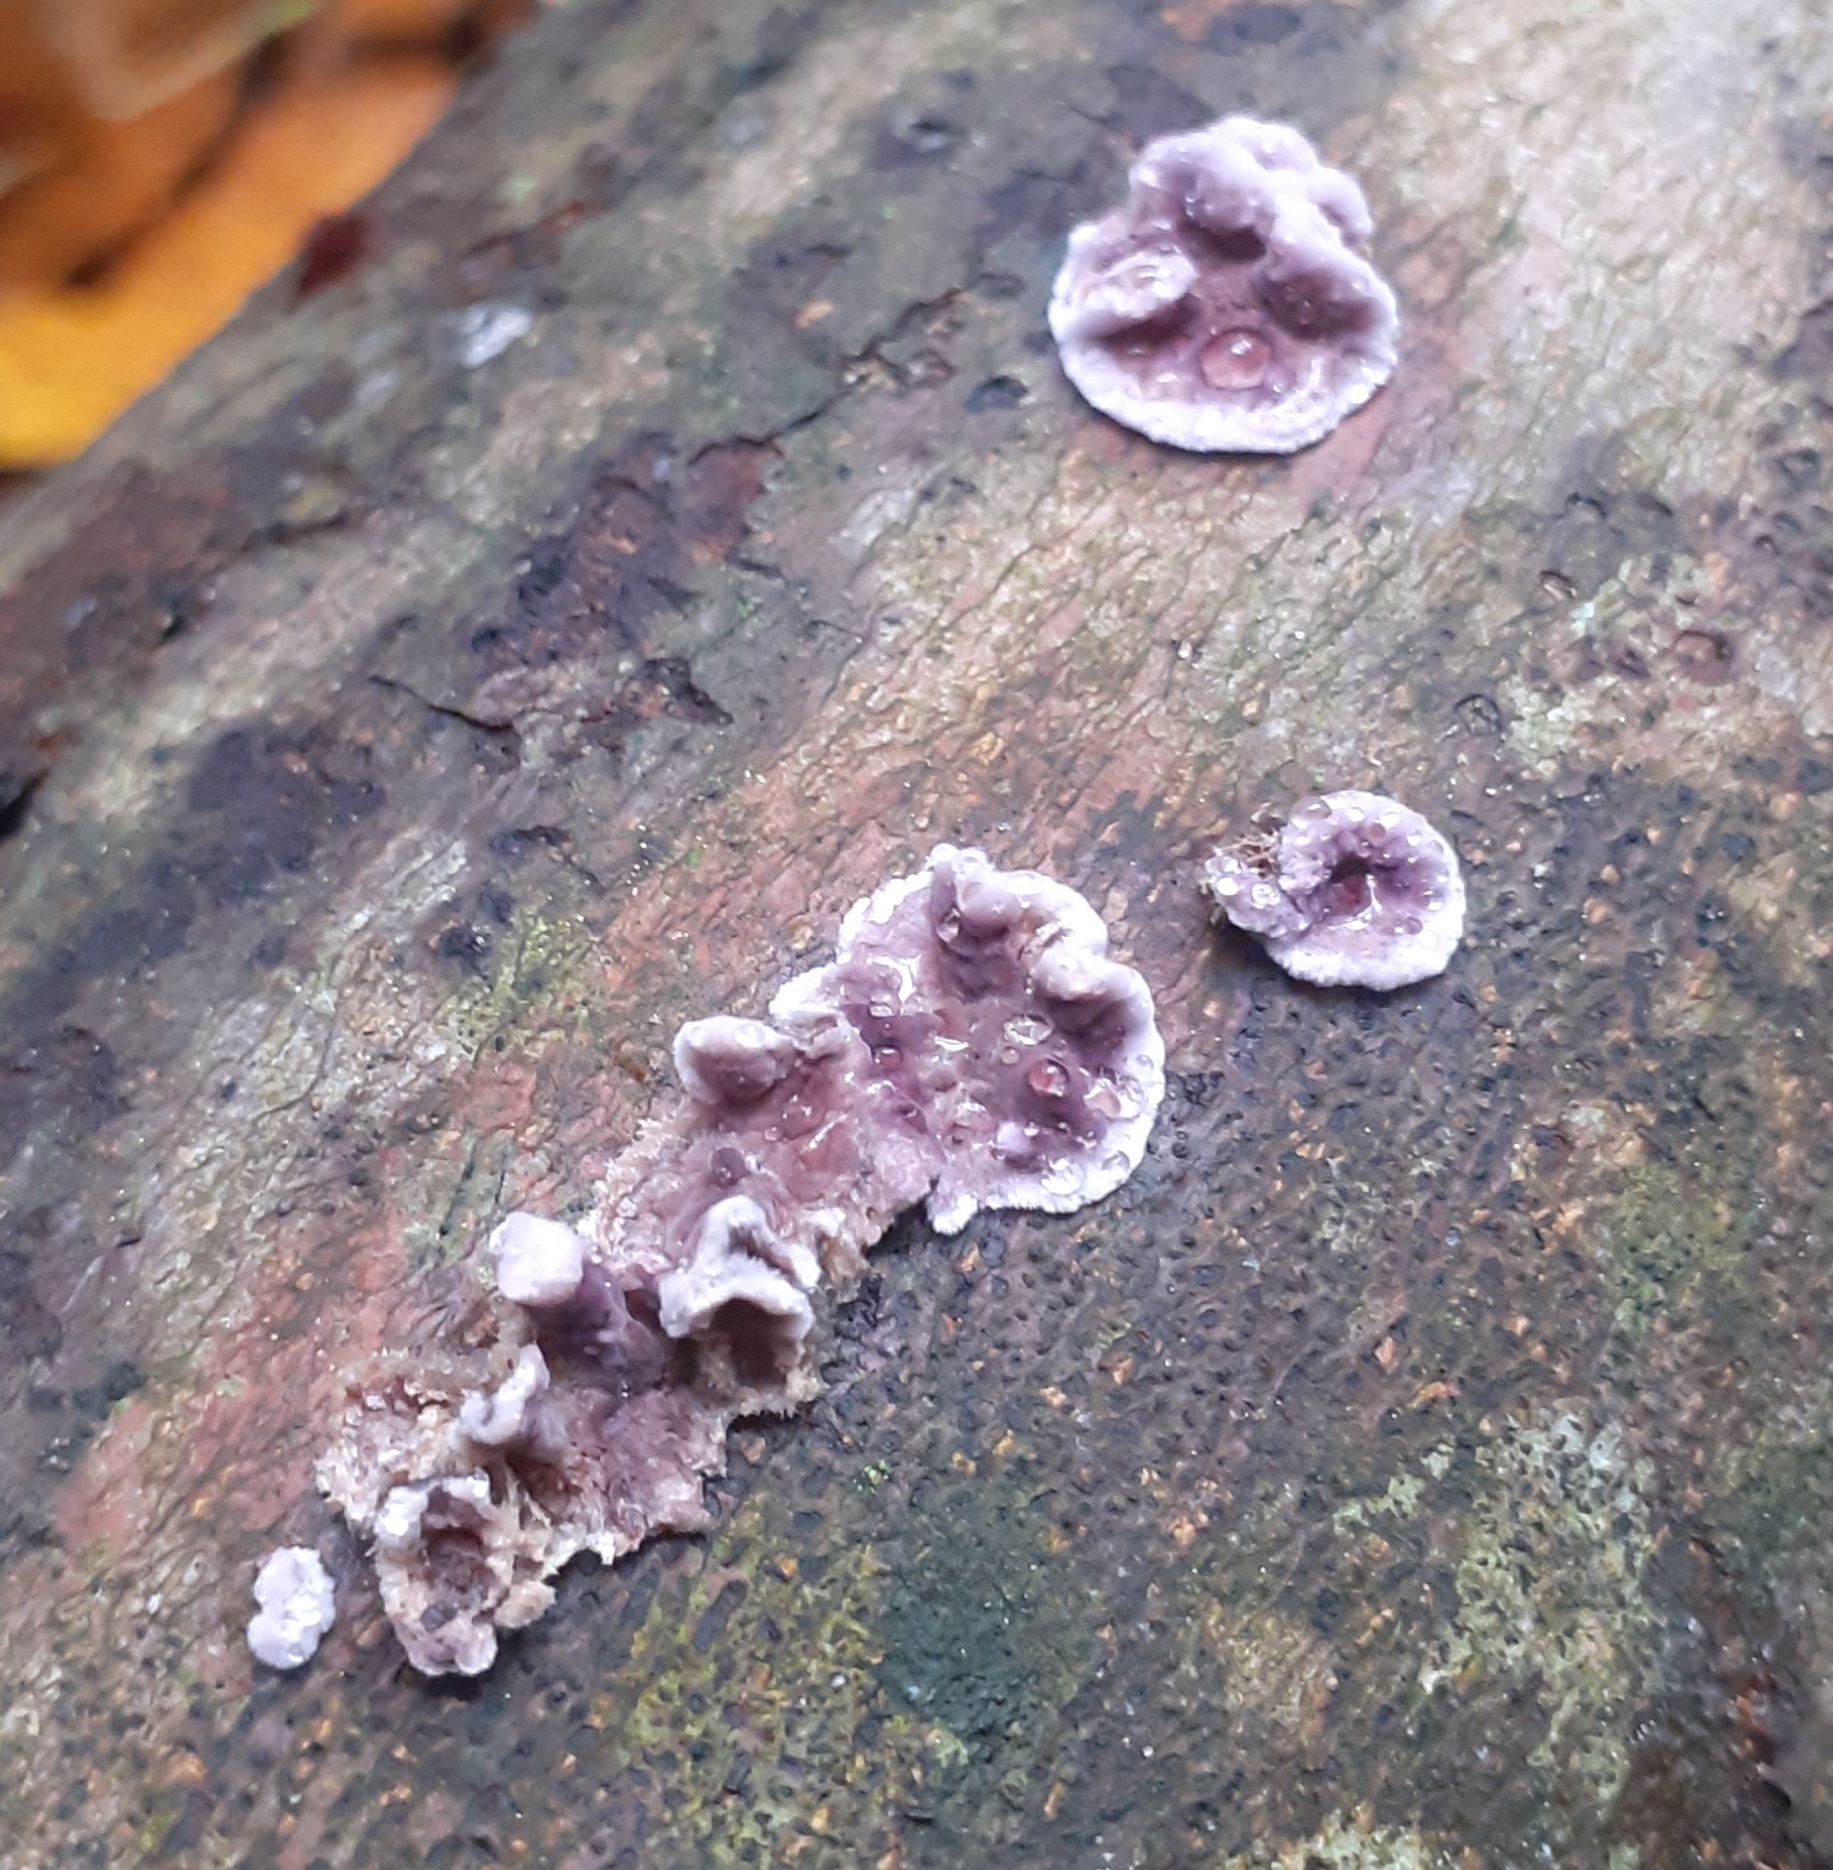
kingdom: Fungi
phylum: Basidiomycota
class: Agaricomycetes
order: Agaricales
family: Cyphellaceae
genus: Chondrostereum
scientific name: Chondrostereum purpureum
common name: Silver leaf disease
